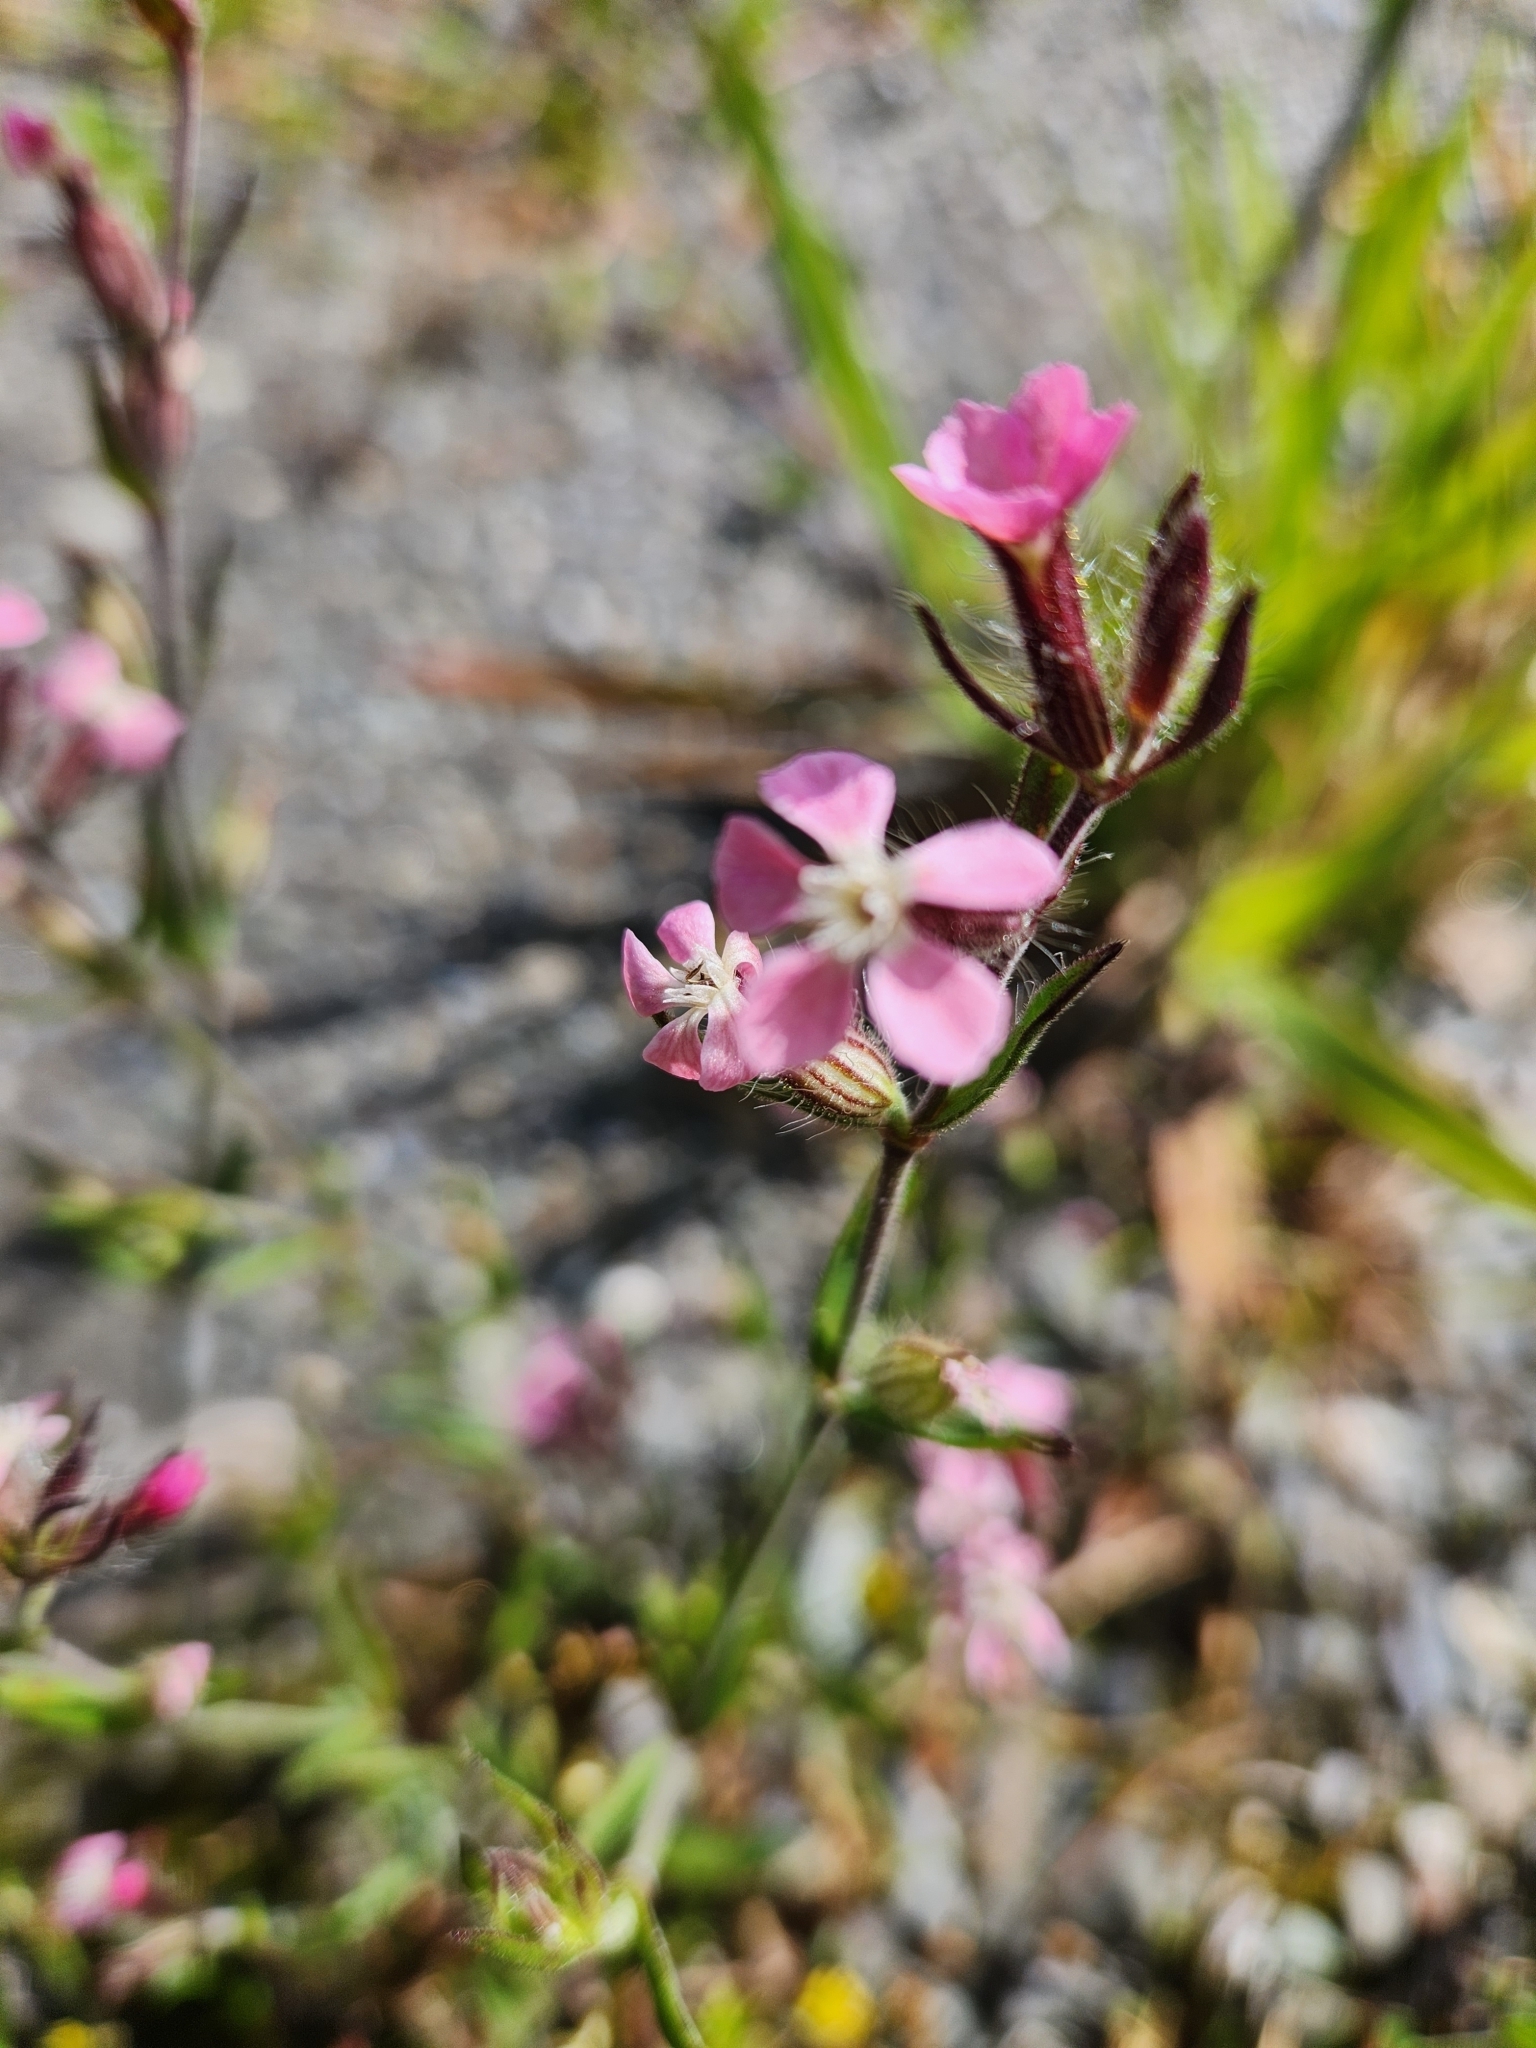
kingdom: Plantae
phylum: Tracheophyta
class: Magnoliopsida
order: Caryophyllales
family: Caryophyllaceae
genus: Silene
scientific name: Silene gallica
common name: Small-flowered catchfly
